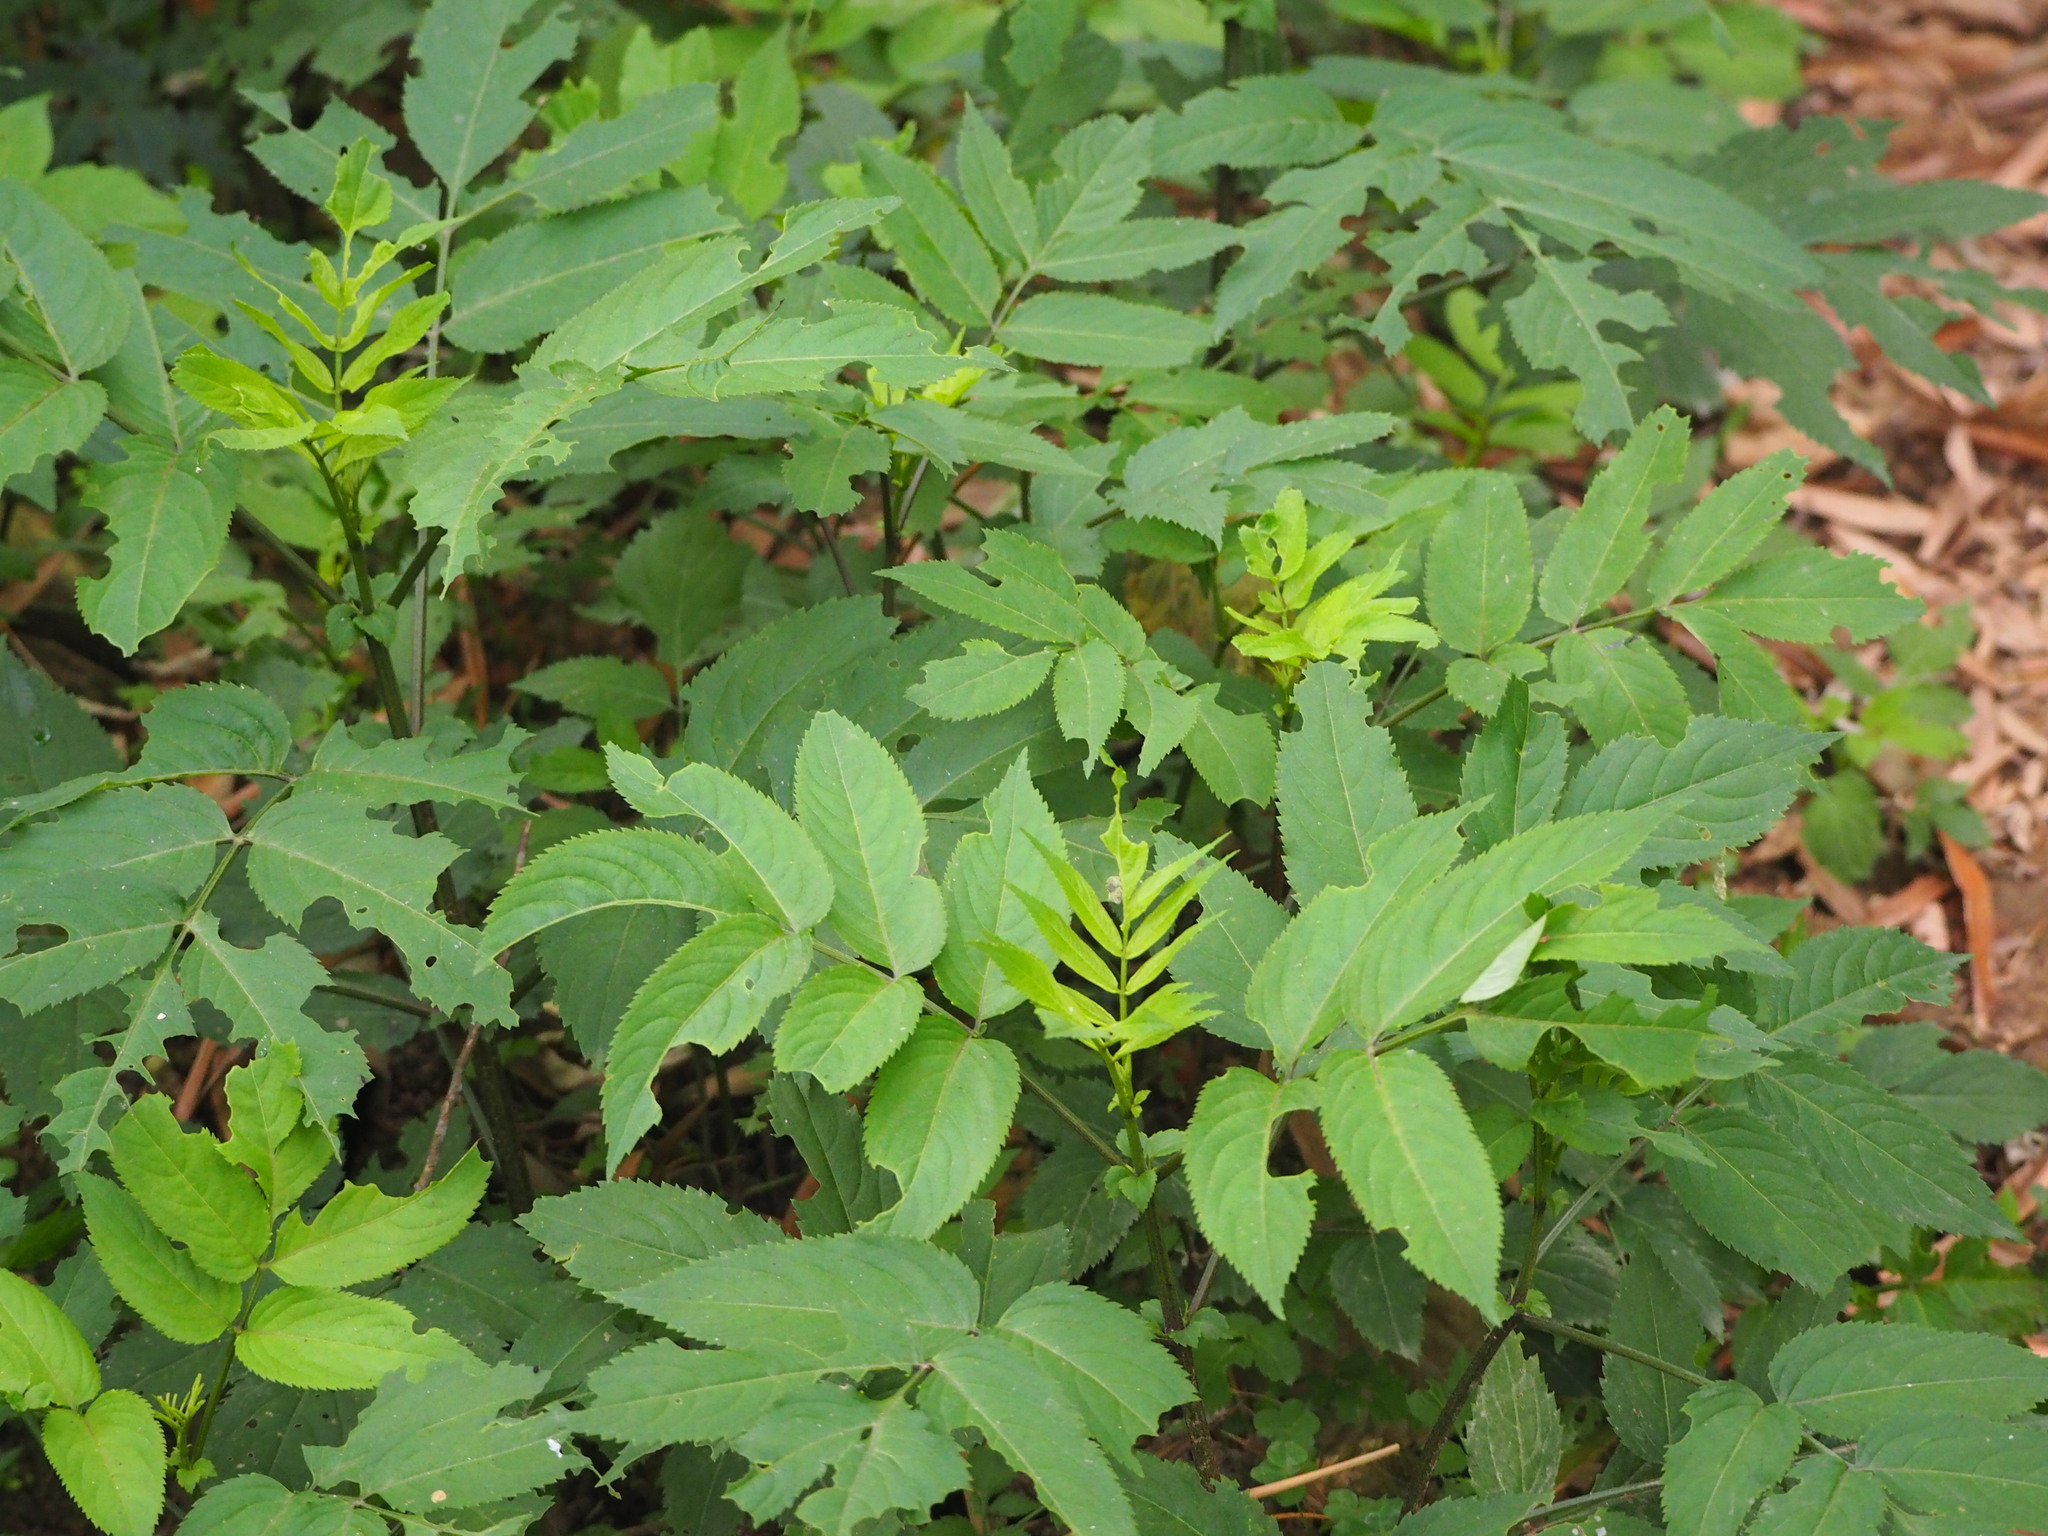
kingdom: Plantae
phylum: Tracheophyta
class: Magnoliopsida
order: Dipsacales
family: Viburnaceae
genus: Sambucus
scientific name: Sambucus javanica
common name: Chinese elder
